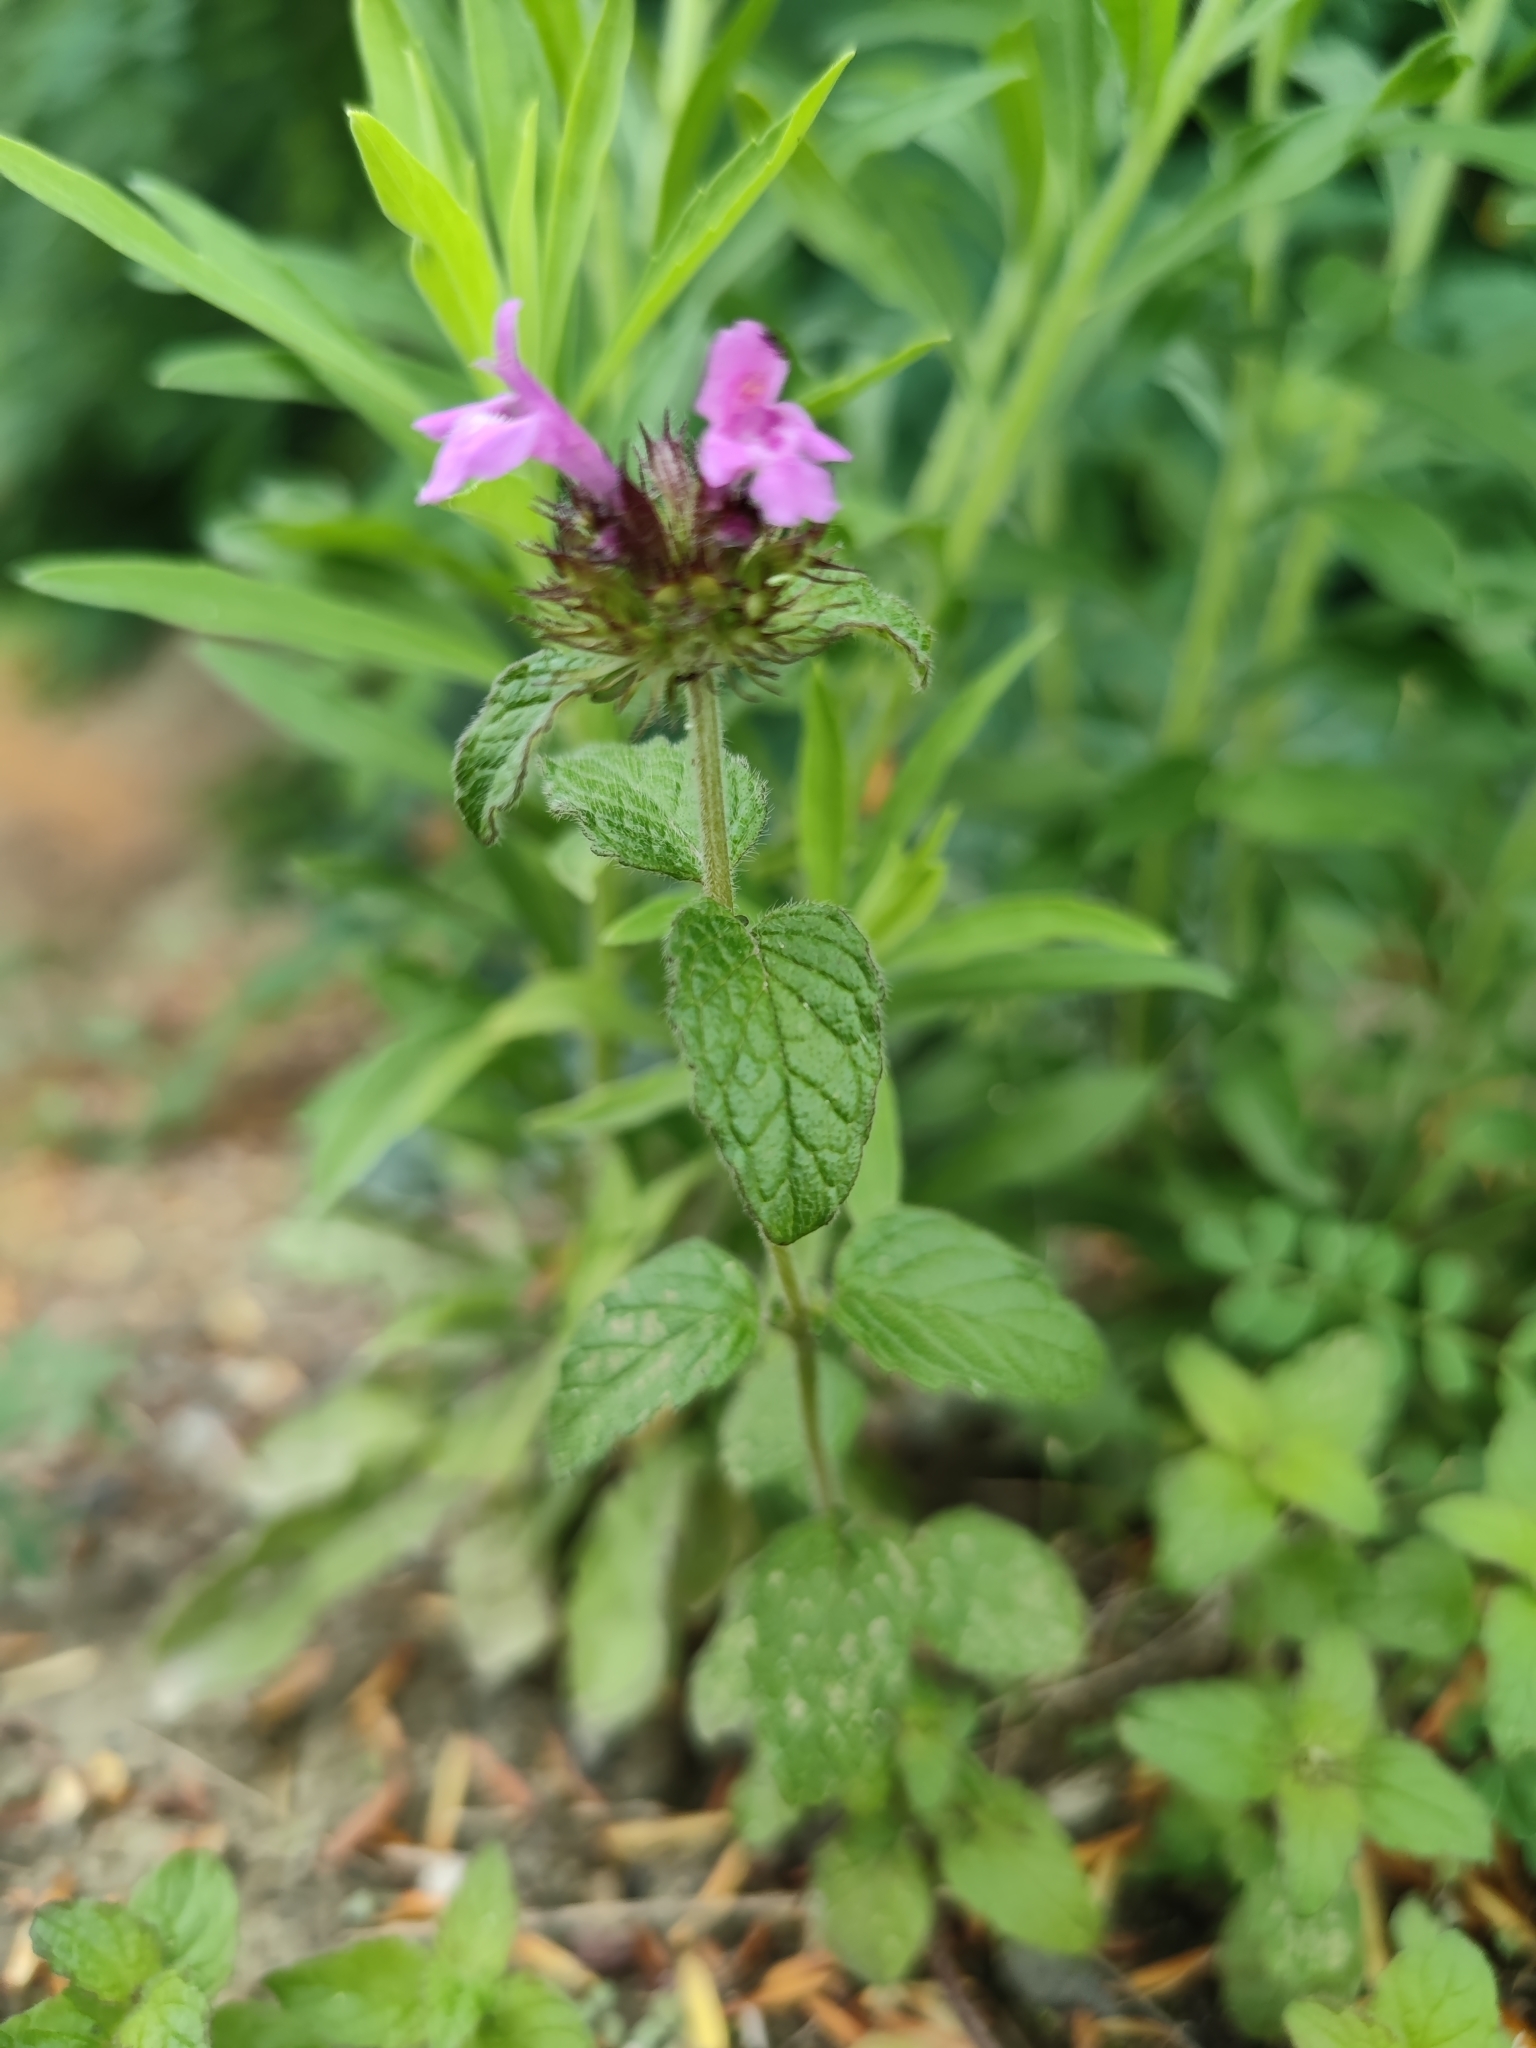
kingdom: Plantae
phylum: Tracheophyta
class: Magnoliopsida
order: Lamiales
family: Lamiaceae
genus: Clinopodium
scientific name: Clinopodium vulgare
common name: Wild basil
